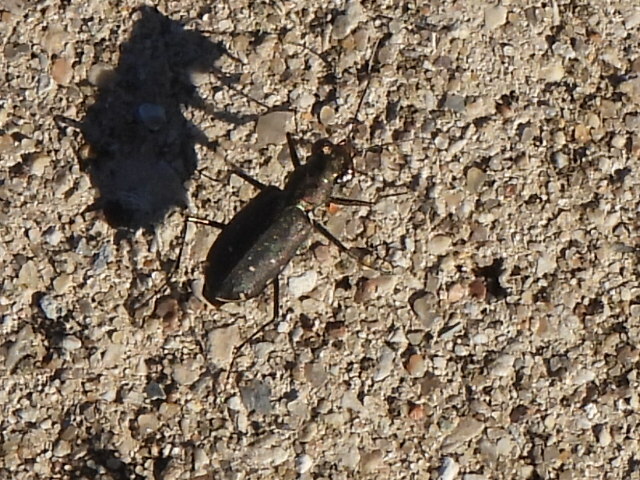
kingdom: Animalia
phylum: Arthropoda
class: Insecta
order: Coleoptera
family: Carabidae
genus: Cicindela
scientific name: Cicindela punctulata
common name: Punctured tiger beetle
